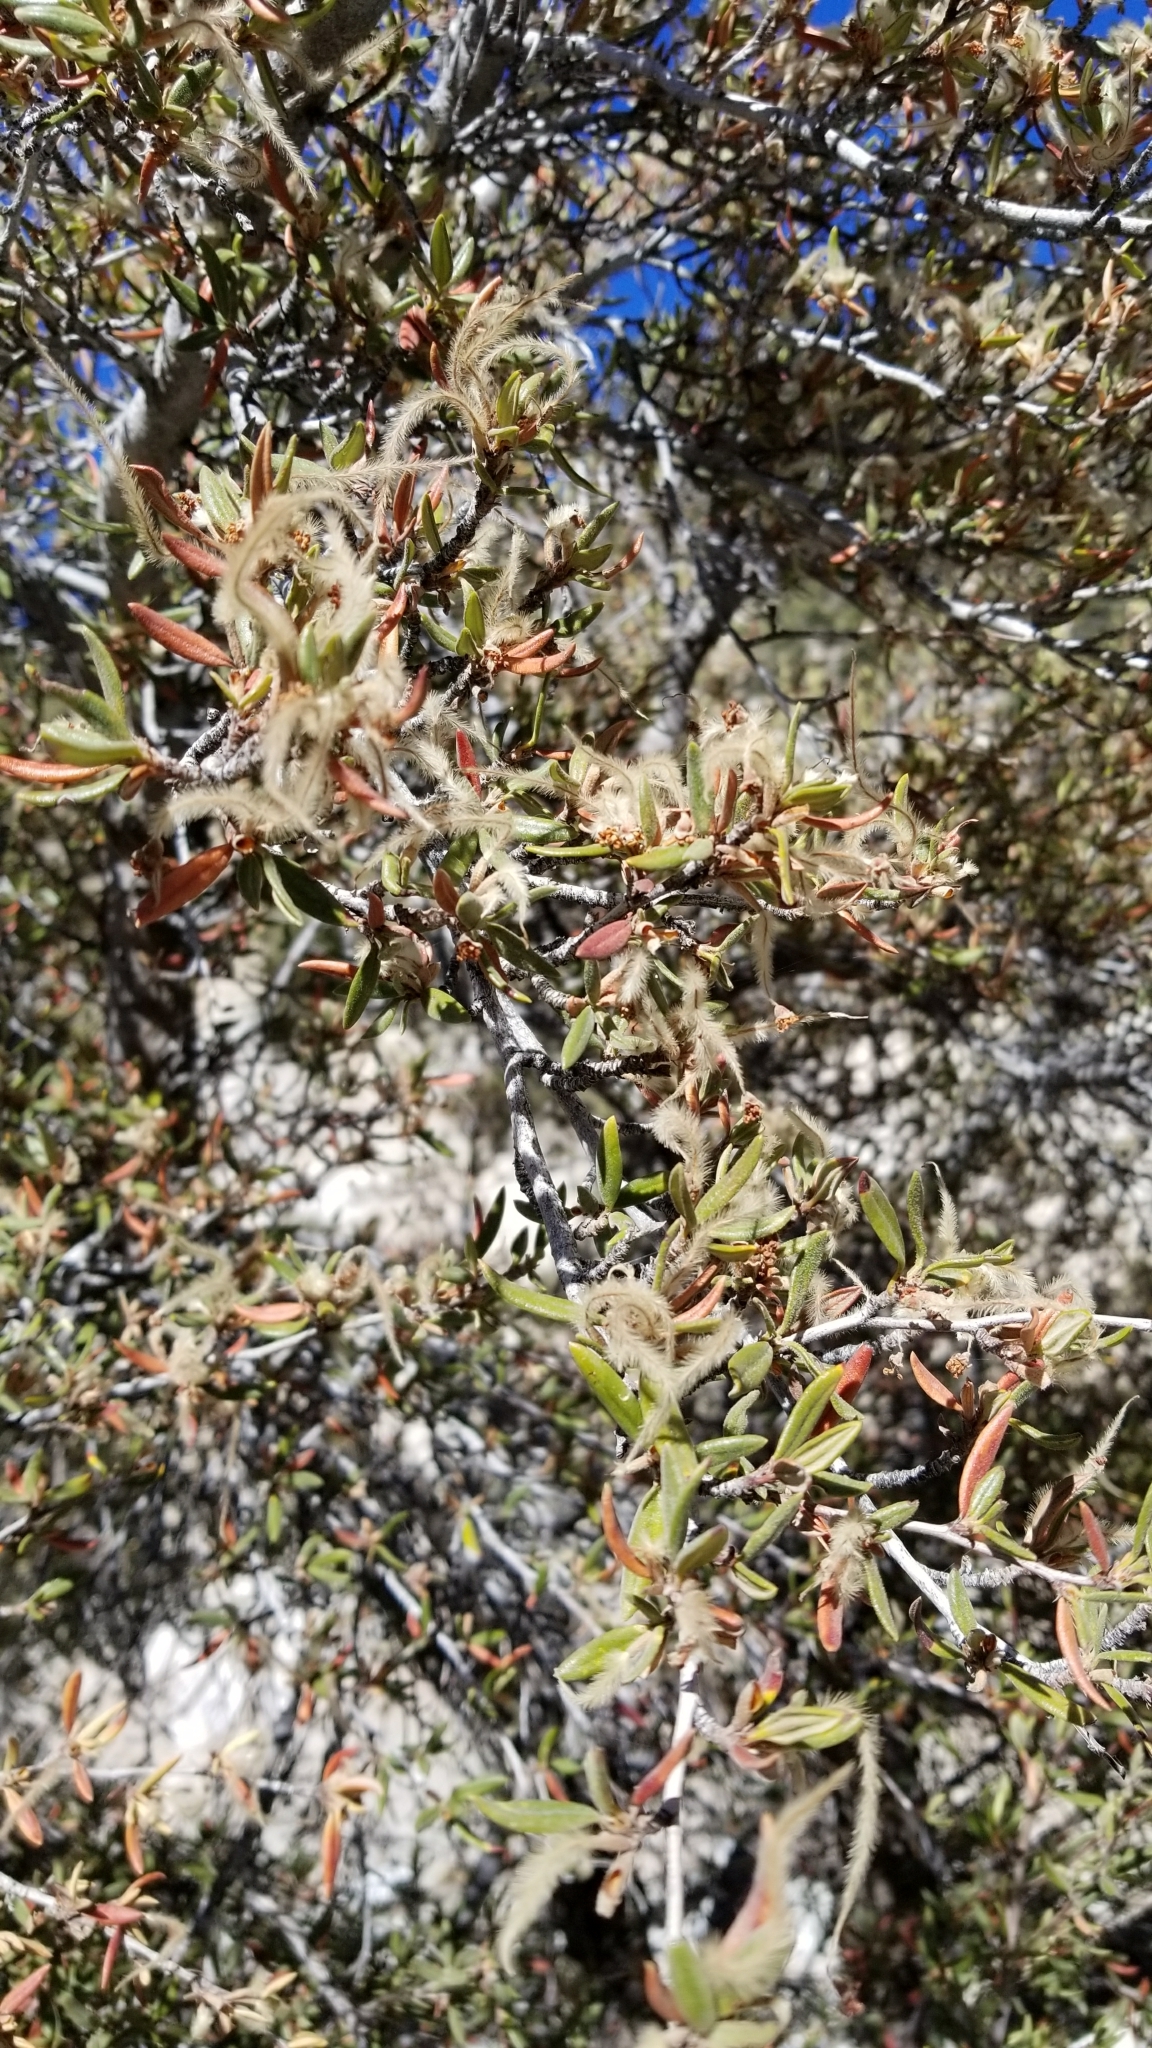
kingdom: Plantae
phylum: Tracheophyta
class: Magnoliopsida
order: Rosales
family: Rosaceae
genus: Cercocarpus
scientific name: Cercocarpus ledifolius
